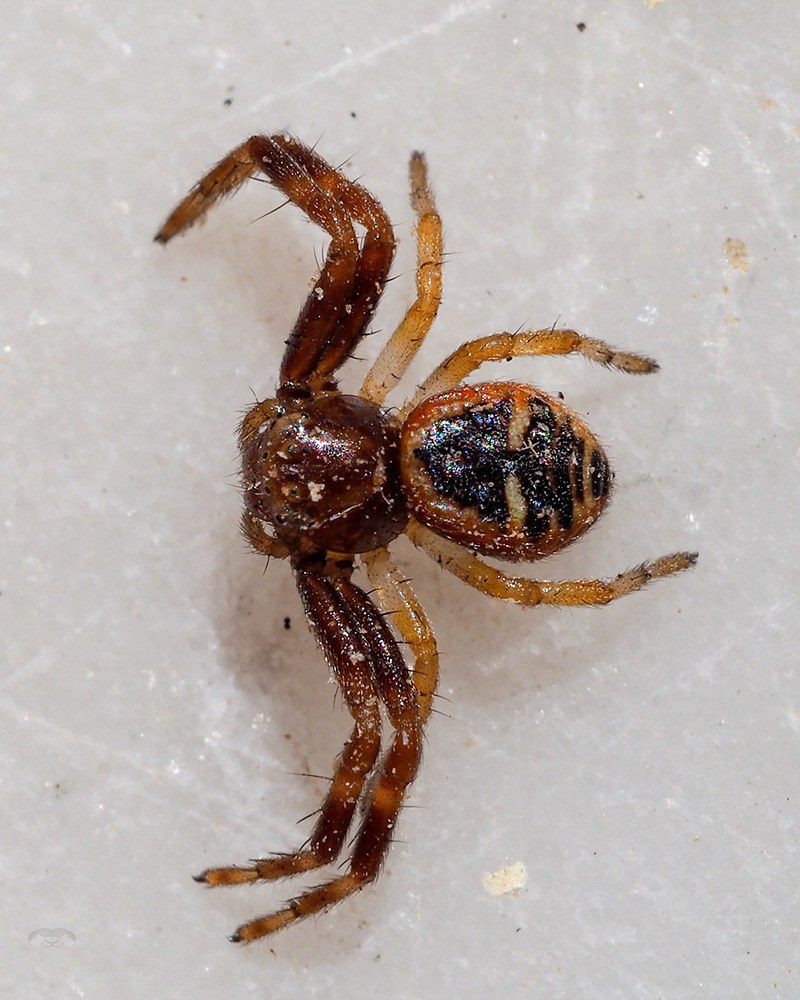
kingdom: Animalia
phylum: Arthropoda
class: Arachnida
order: Araneae
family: Thomisidae
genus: Synema
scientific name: Synema globosum
